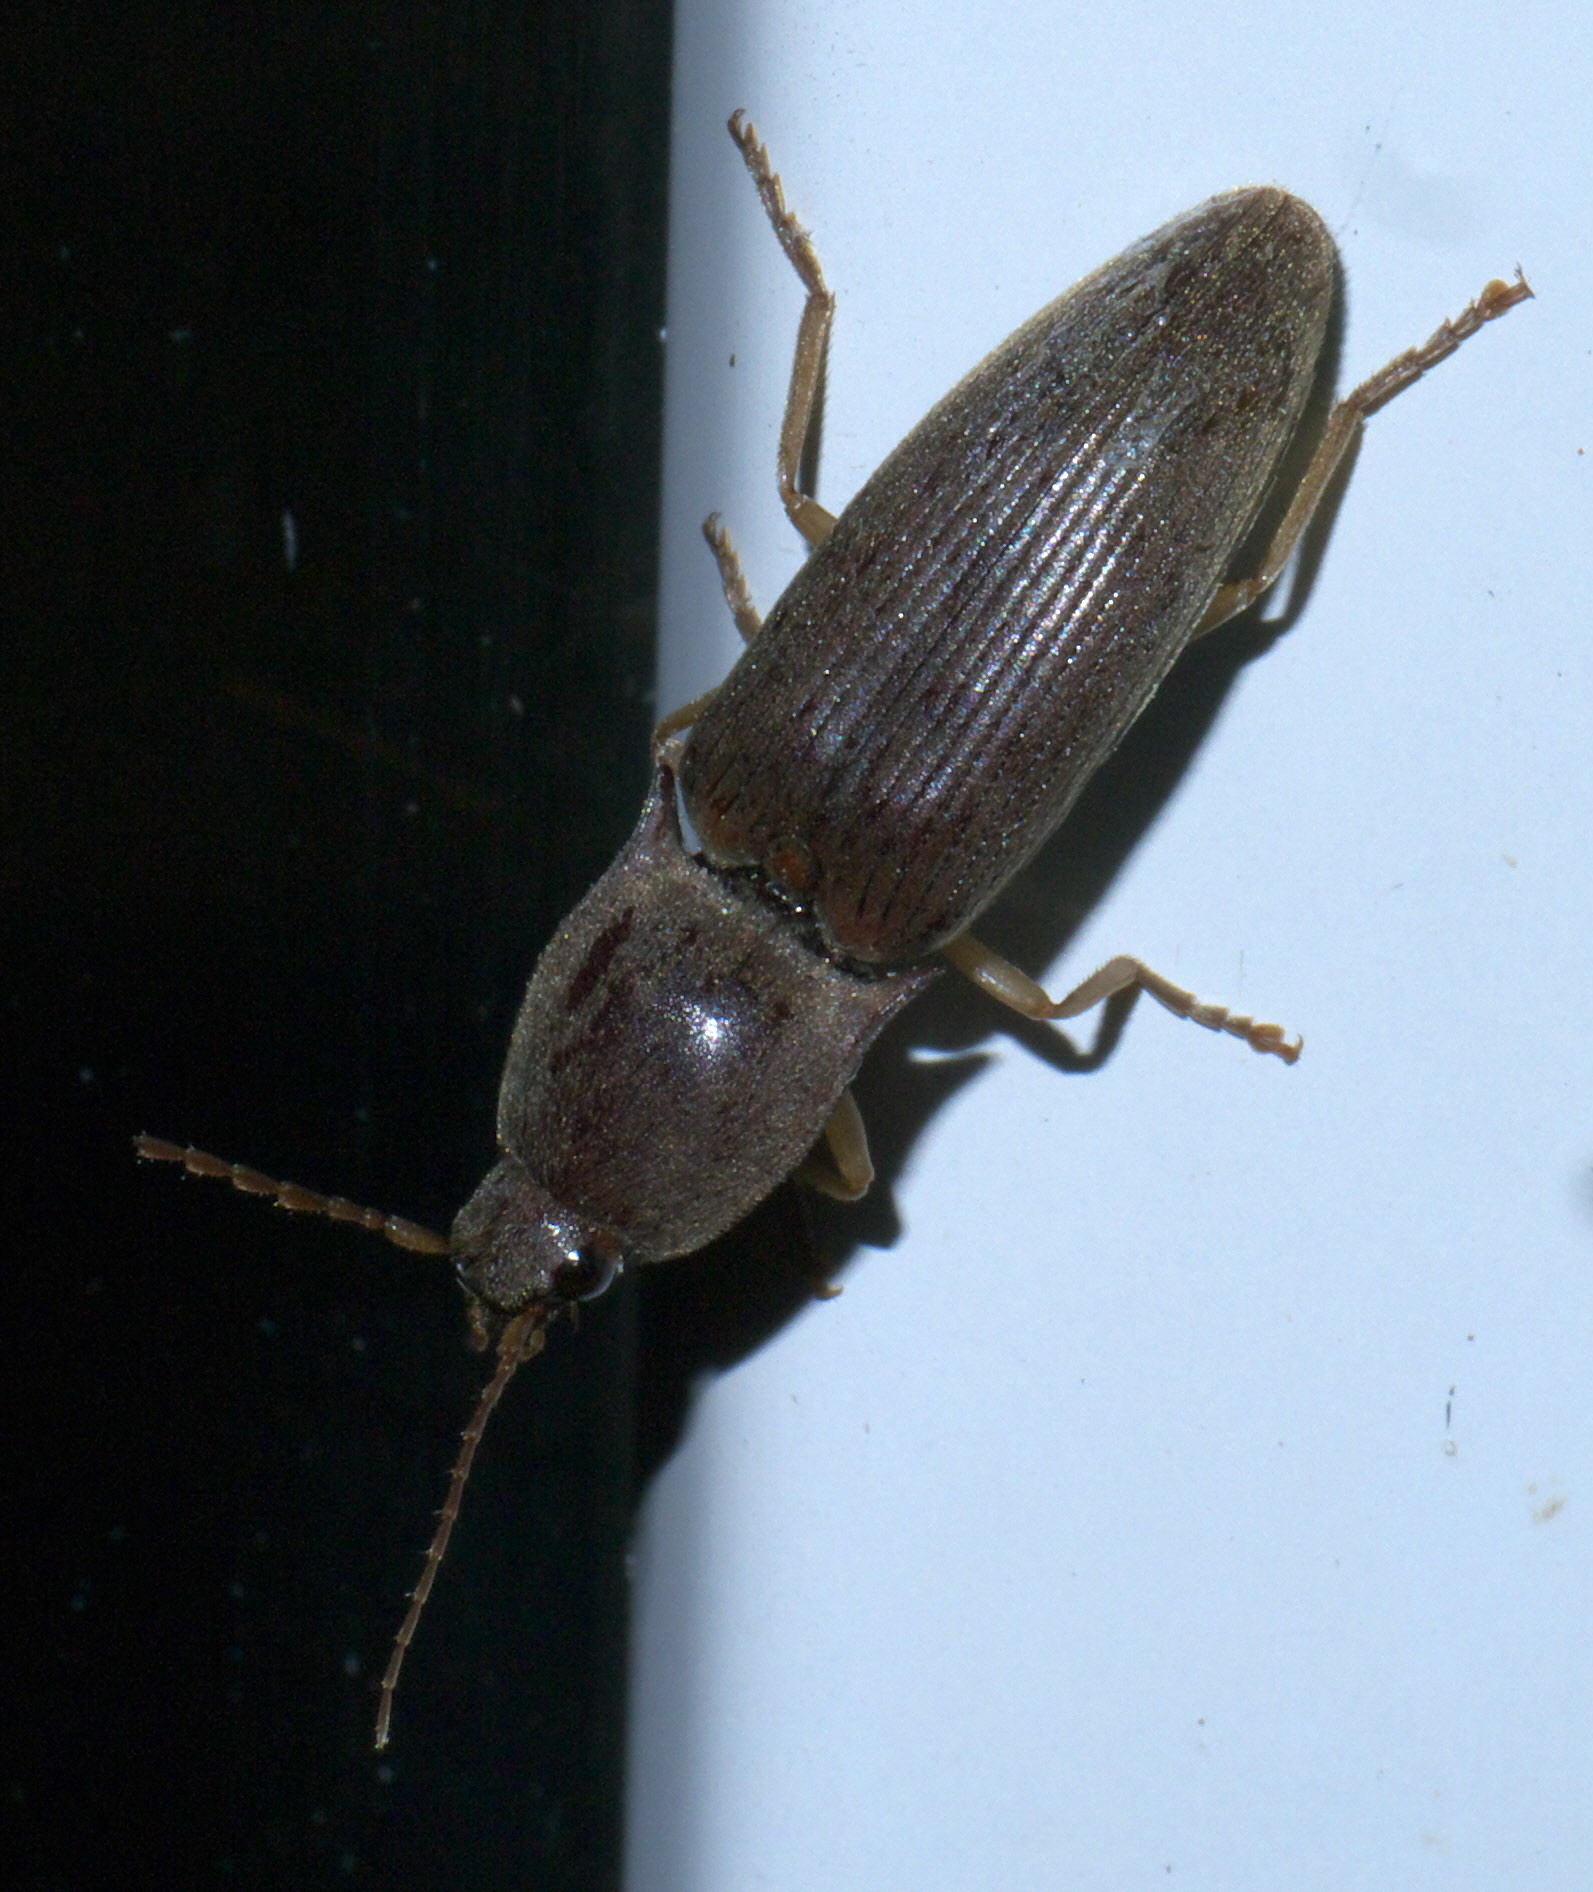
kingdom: Animalia
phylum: Arthropoda
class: Insecta
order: Coleoptera
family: Elateridae
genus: Monocrepidius
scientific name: Monocrepidius lividus
